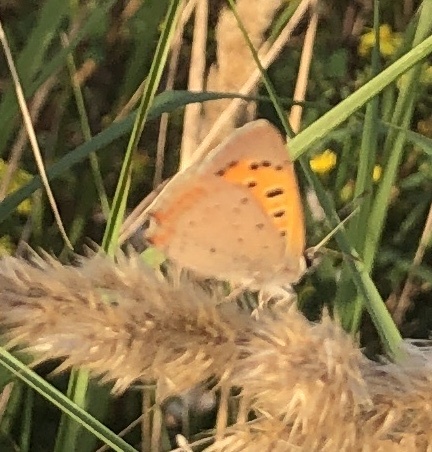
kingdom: Animalia
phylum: Arthropoda
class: Insecta
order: Lepidoptera
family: Lycaenidae
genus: Lycaena
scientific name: Lycaena phlaeas
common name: Small copper
